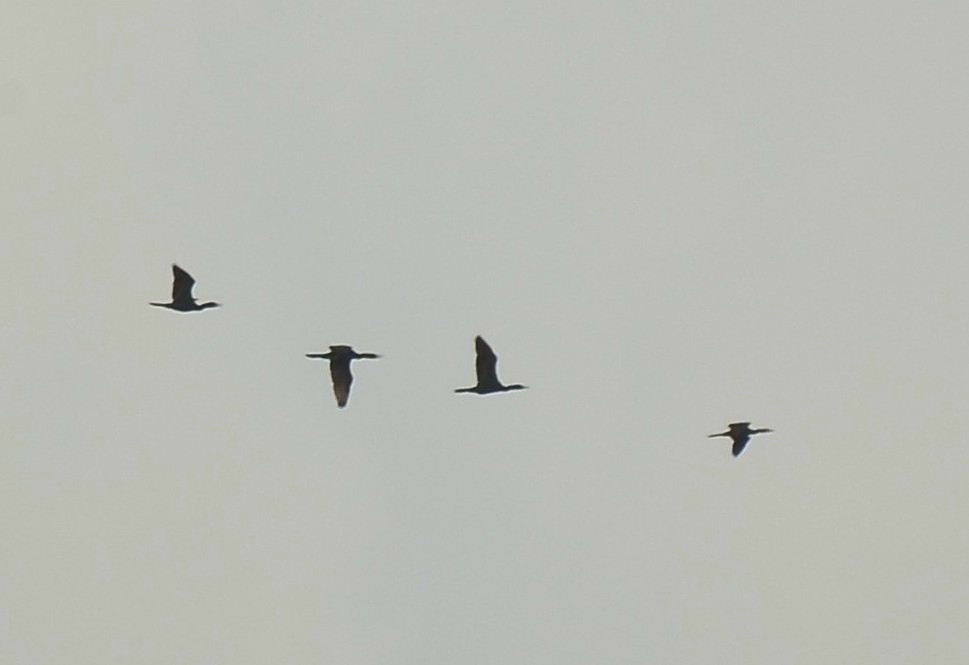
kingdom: Animalia
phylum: Chordata
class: Aves
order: Suliformes
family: Phalacrocoracidae
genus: Phalacrocorax
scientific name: Phalacrocorax fuscicollis
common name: Indian cormorant
